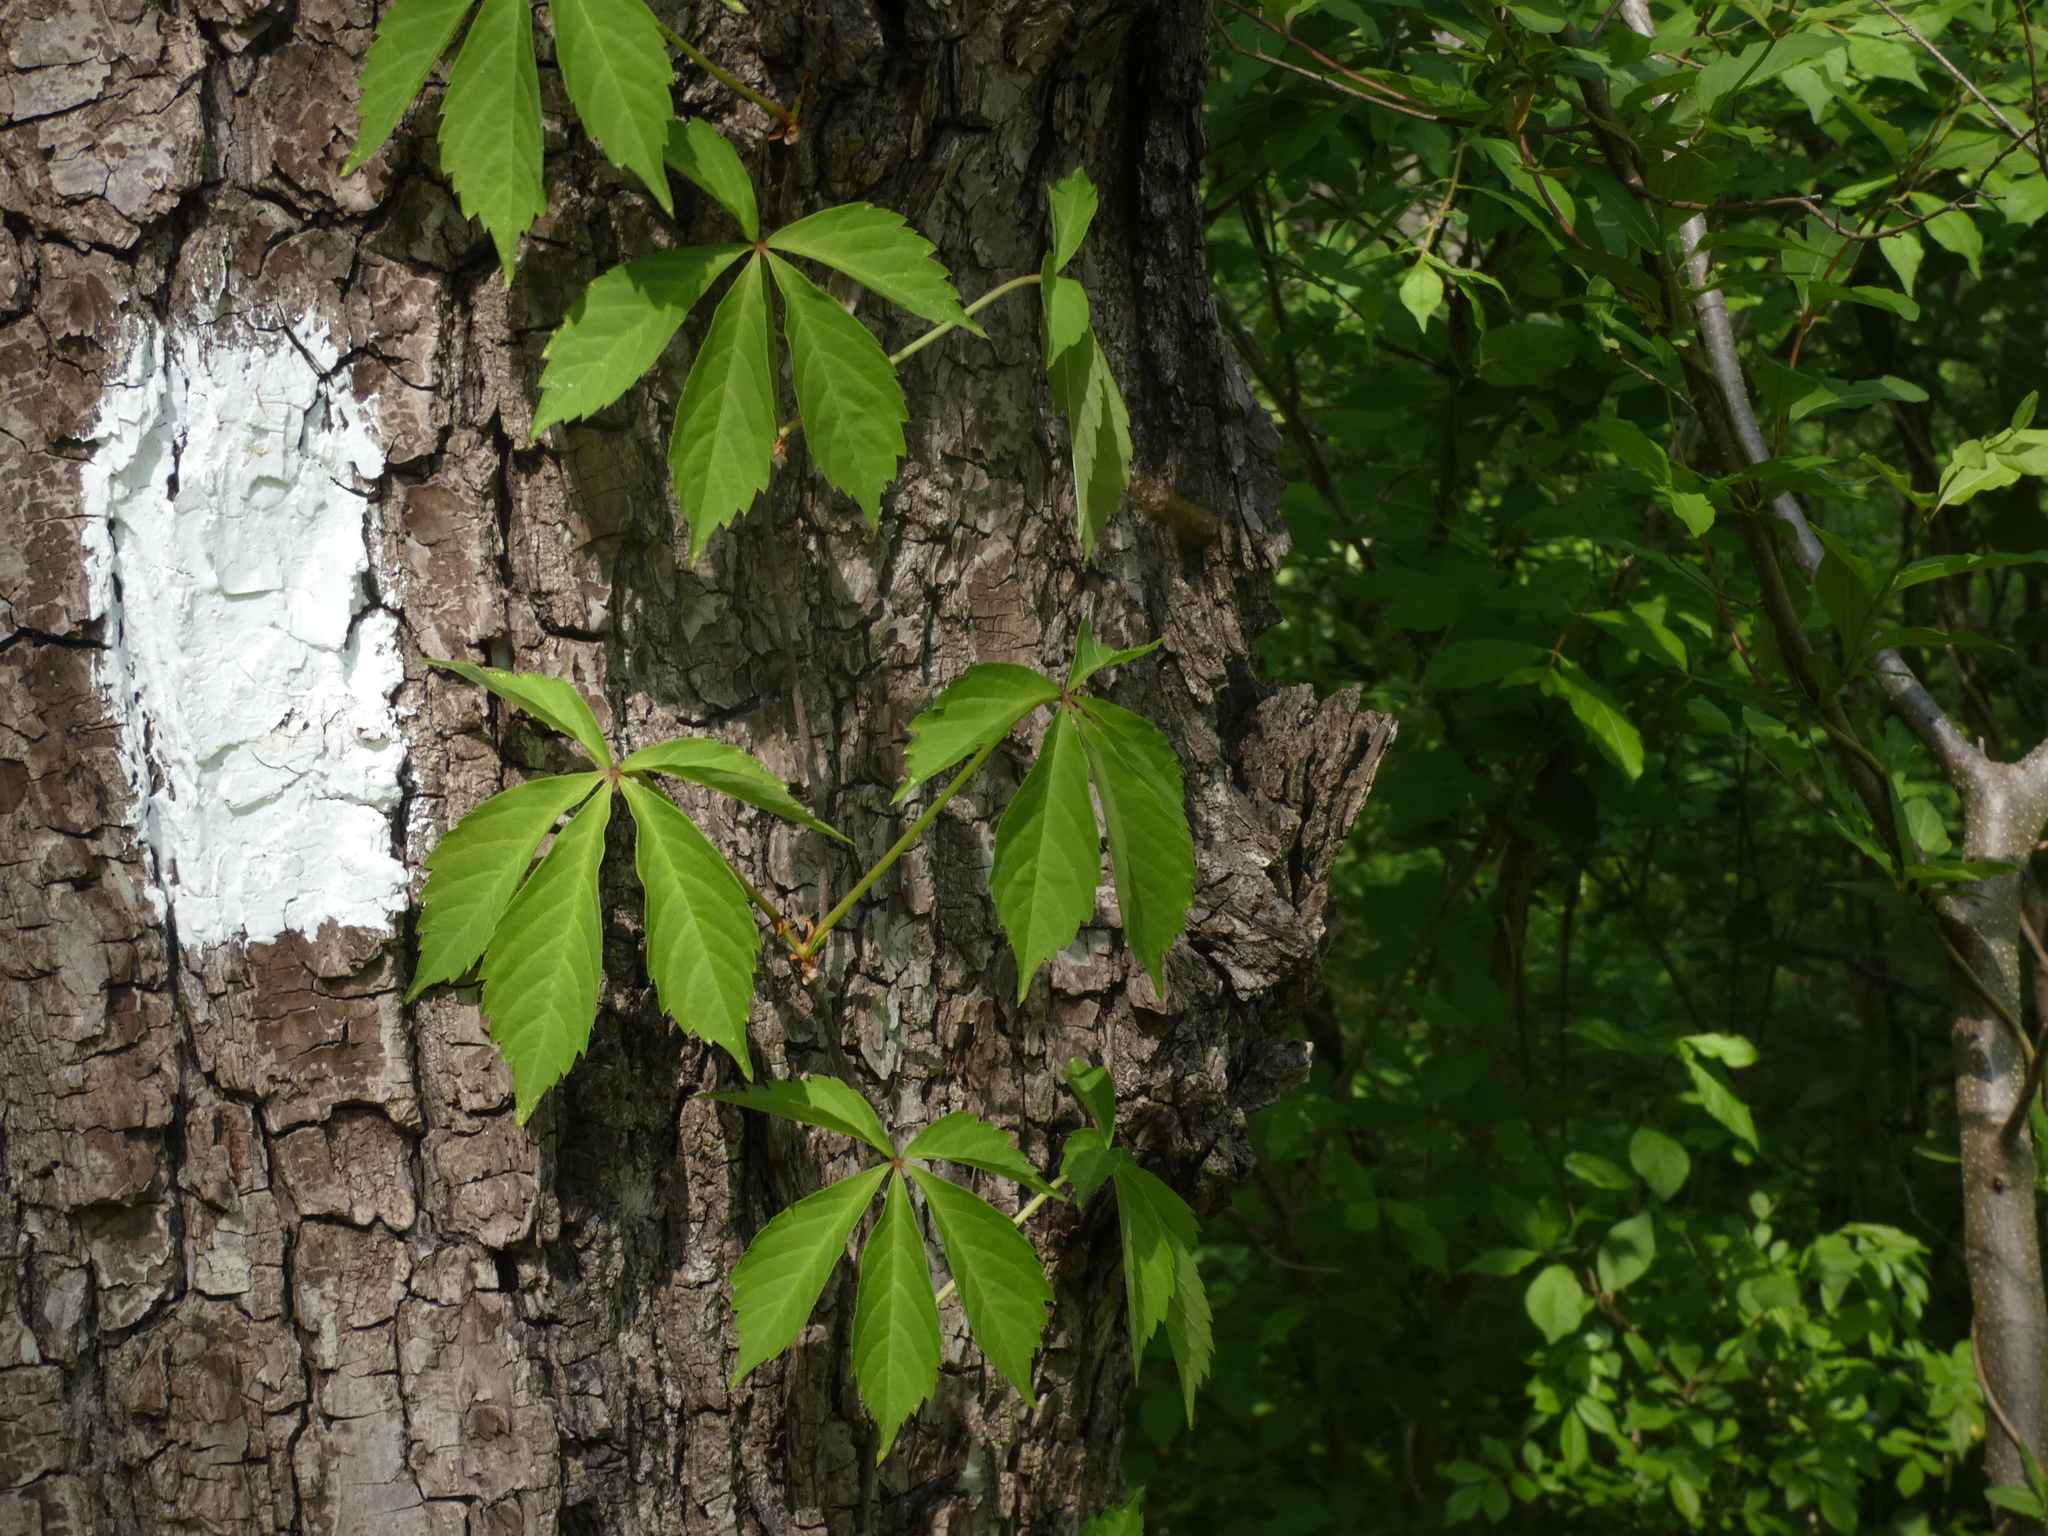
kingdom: Plantae
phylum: Tracheophyta
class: Magnoliopsida
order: Vitales
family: Vitaceae
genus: Parthenocissus
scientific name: Parthenocissus quinquefolia
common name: Virginia-creeper
